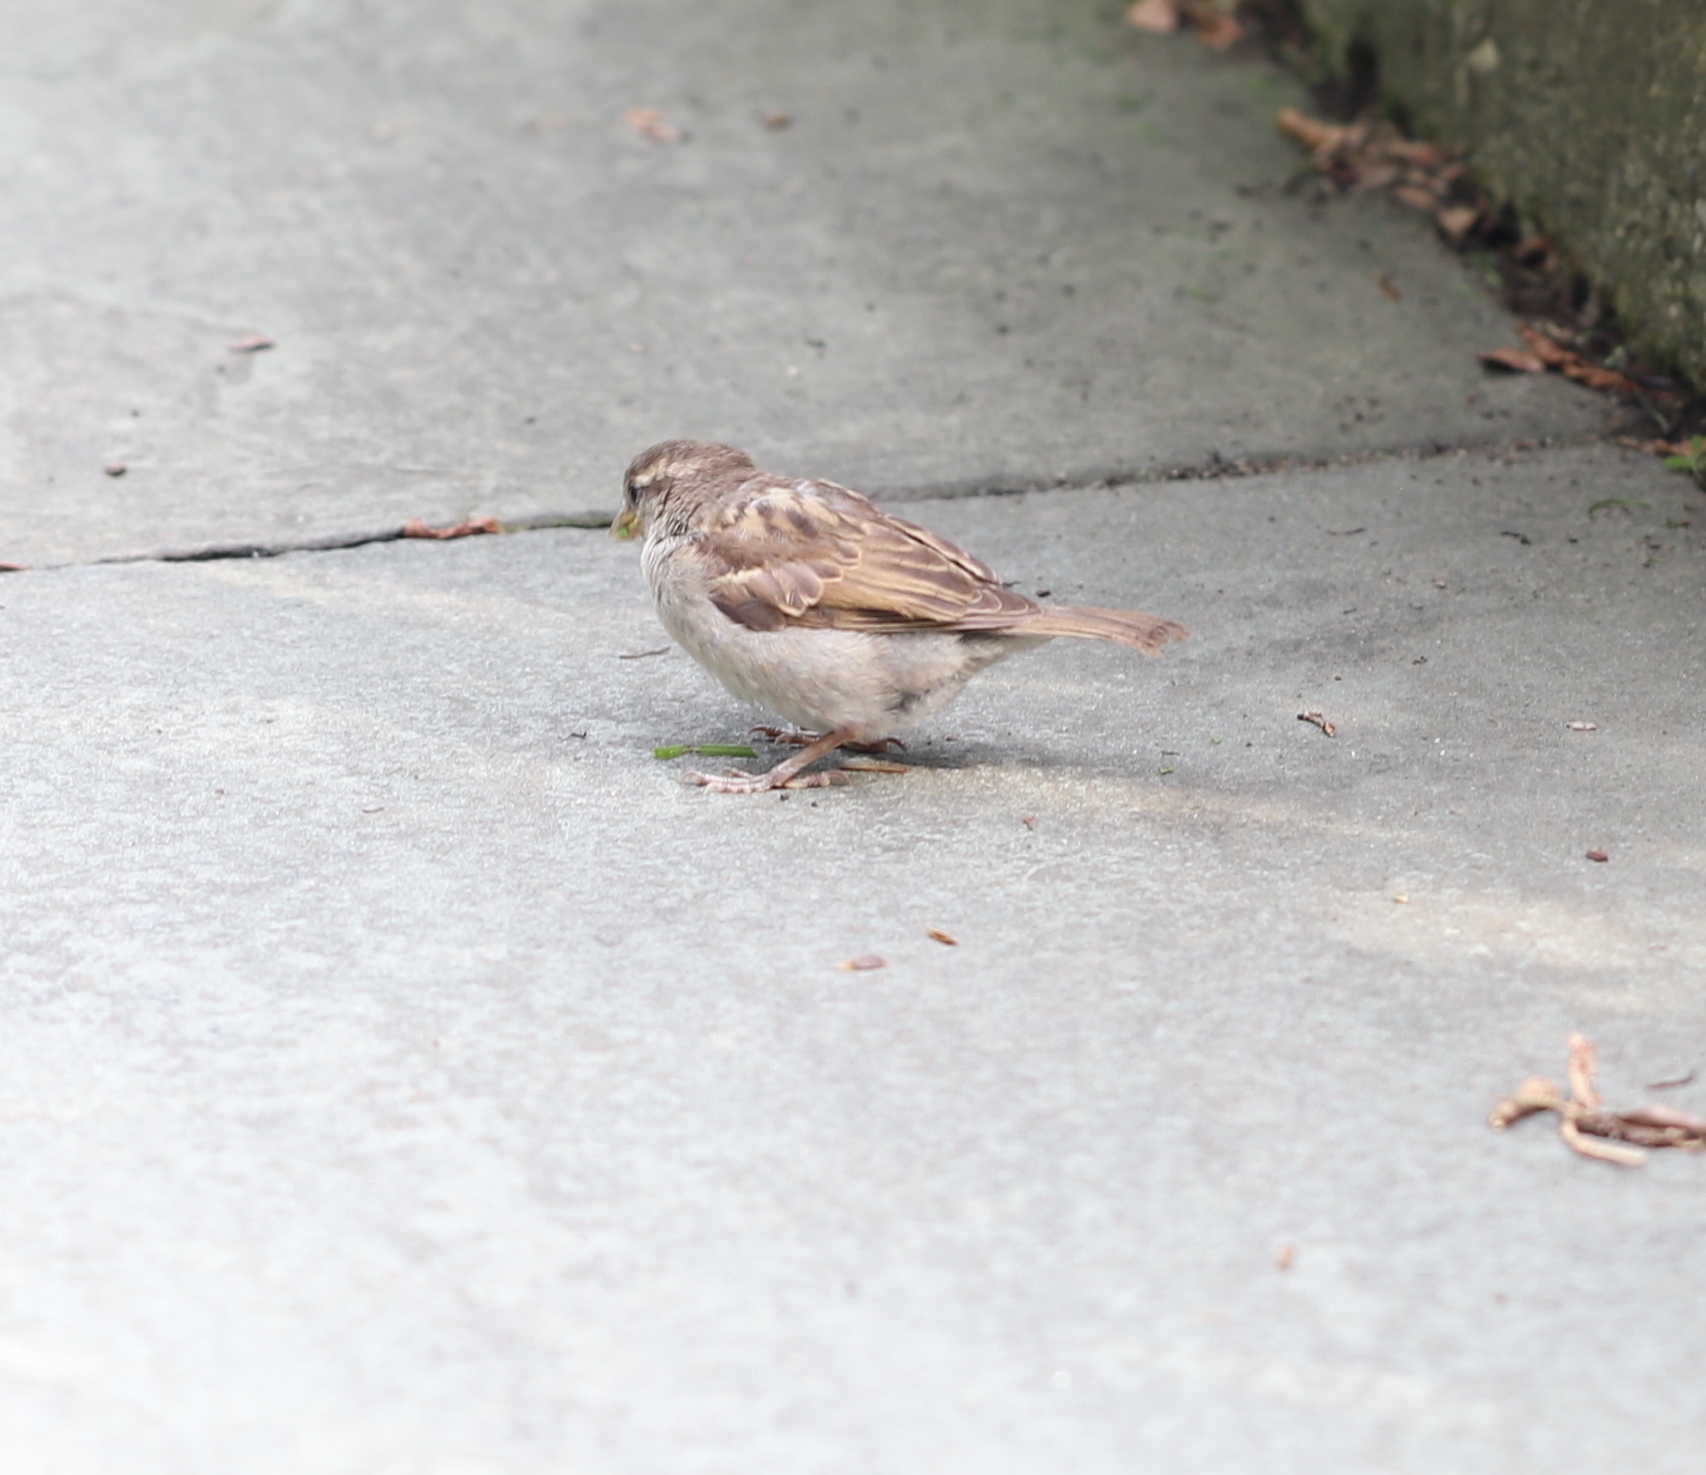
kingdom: Animalia
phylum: Chordata
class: Aves
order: Passeriformes
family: Passeridae
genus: Passer
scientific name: Passer domesticus
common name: House sparrow
